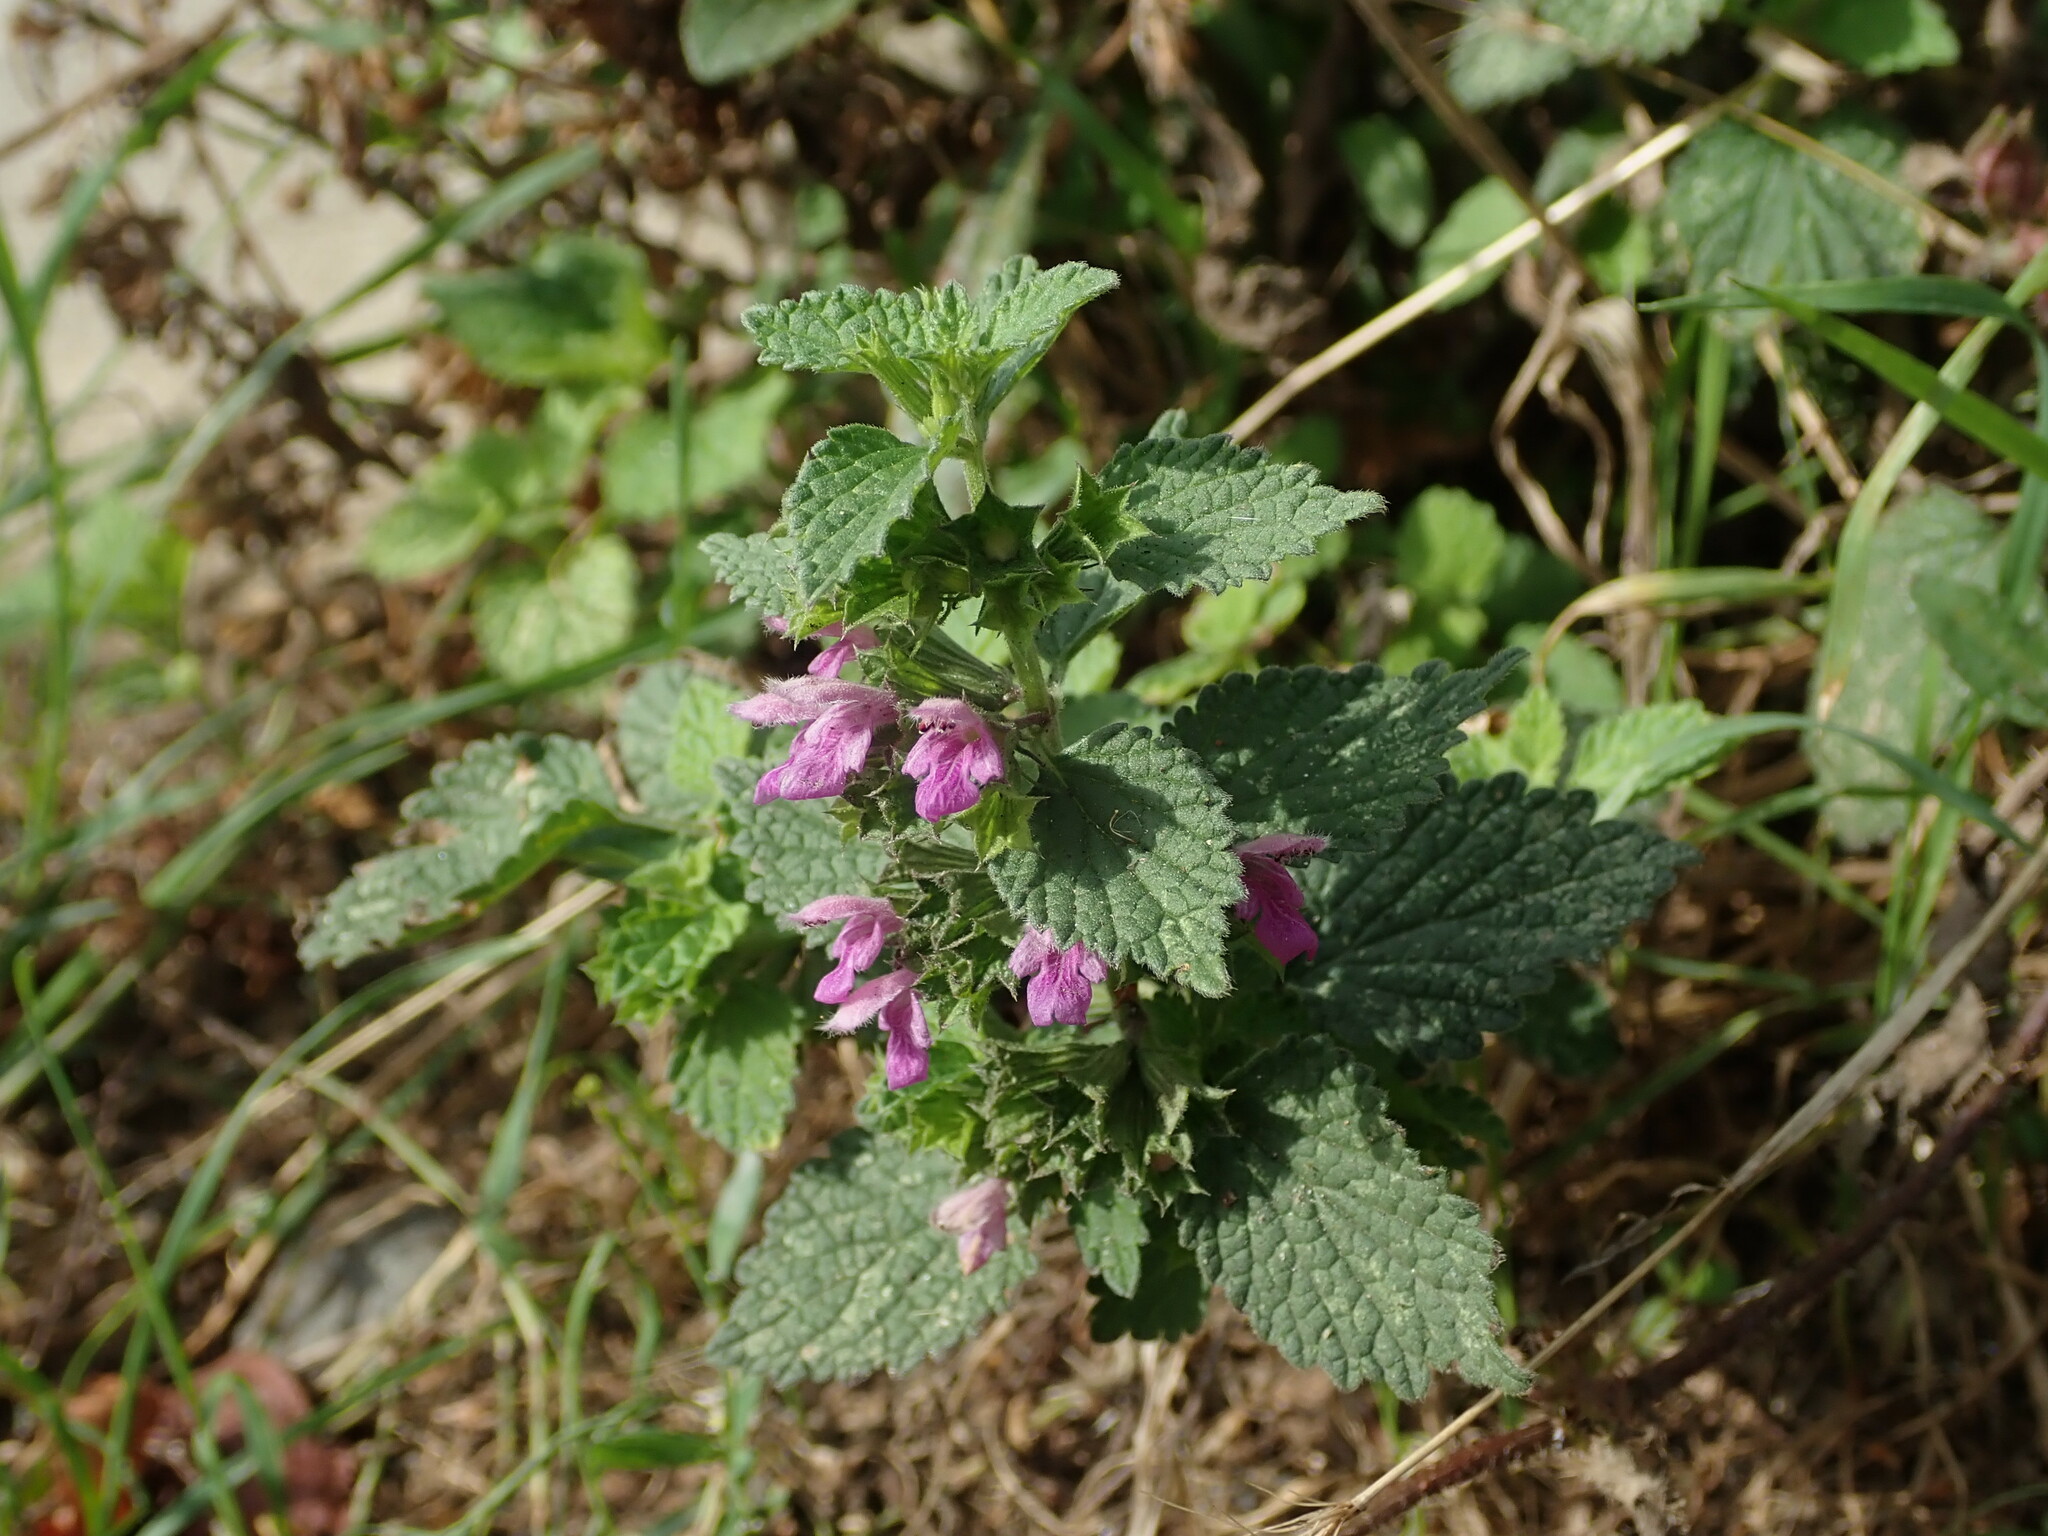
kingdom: Plantae
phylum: Tracheophyta
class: Magnoliopsida
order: Lamiales
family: Lamiaceae
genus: Ballota
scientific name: Ballota nigra
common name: Black horehound
